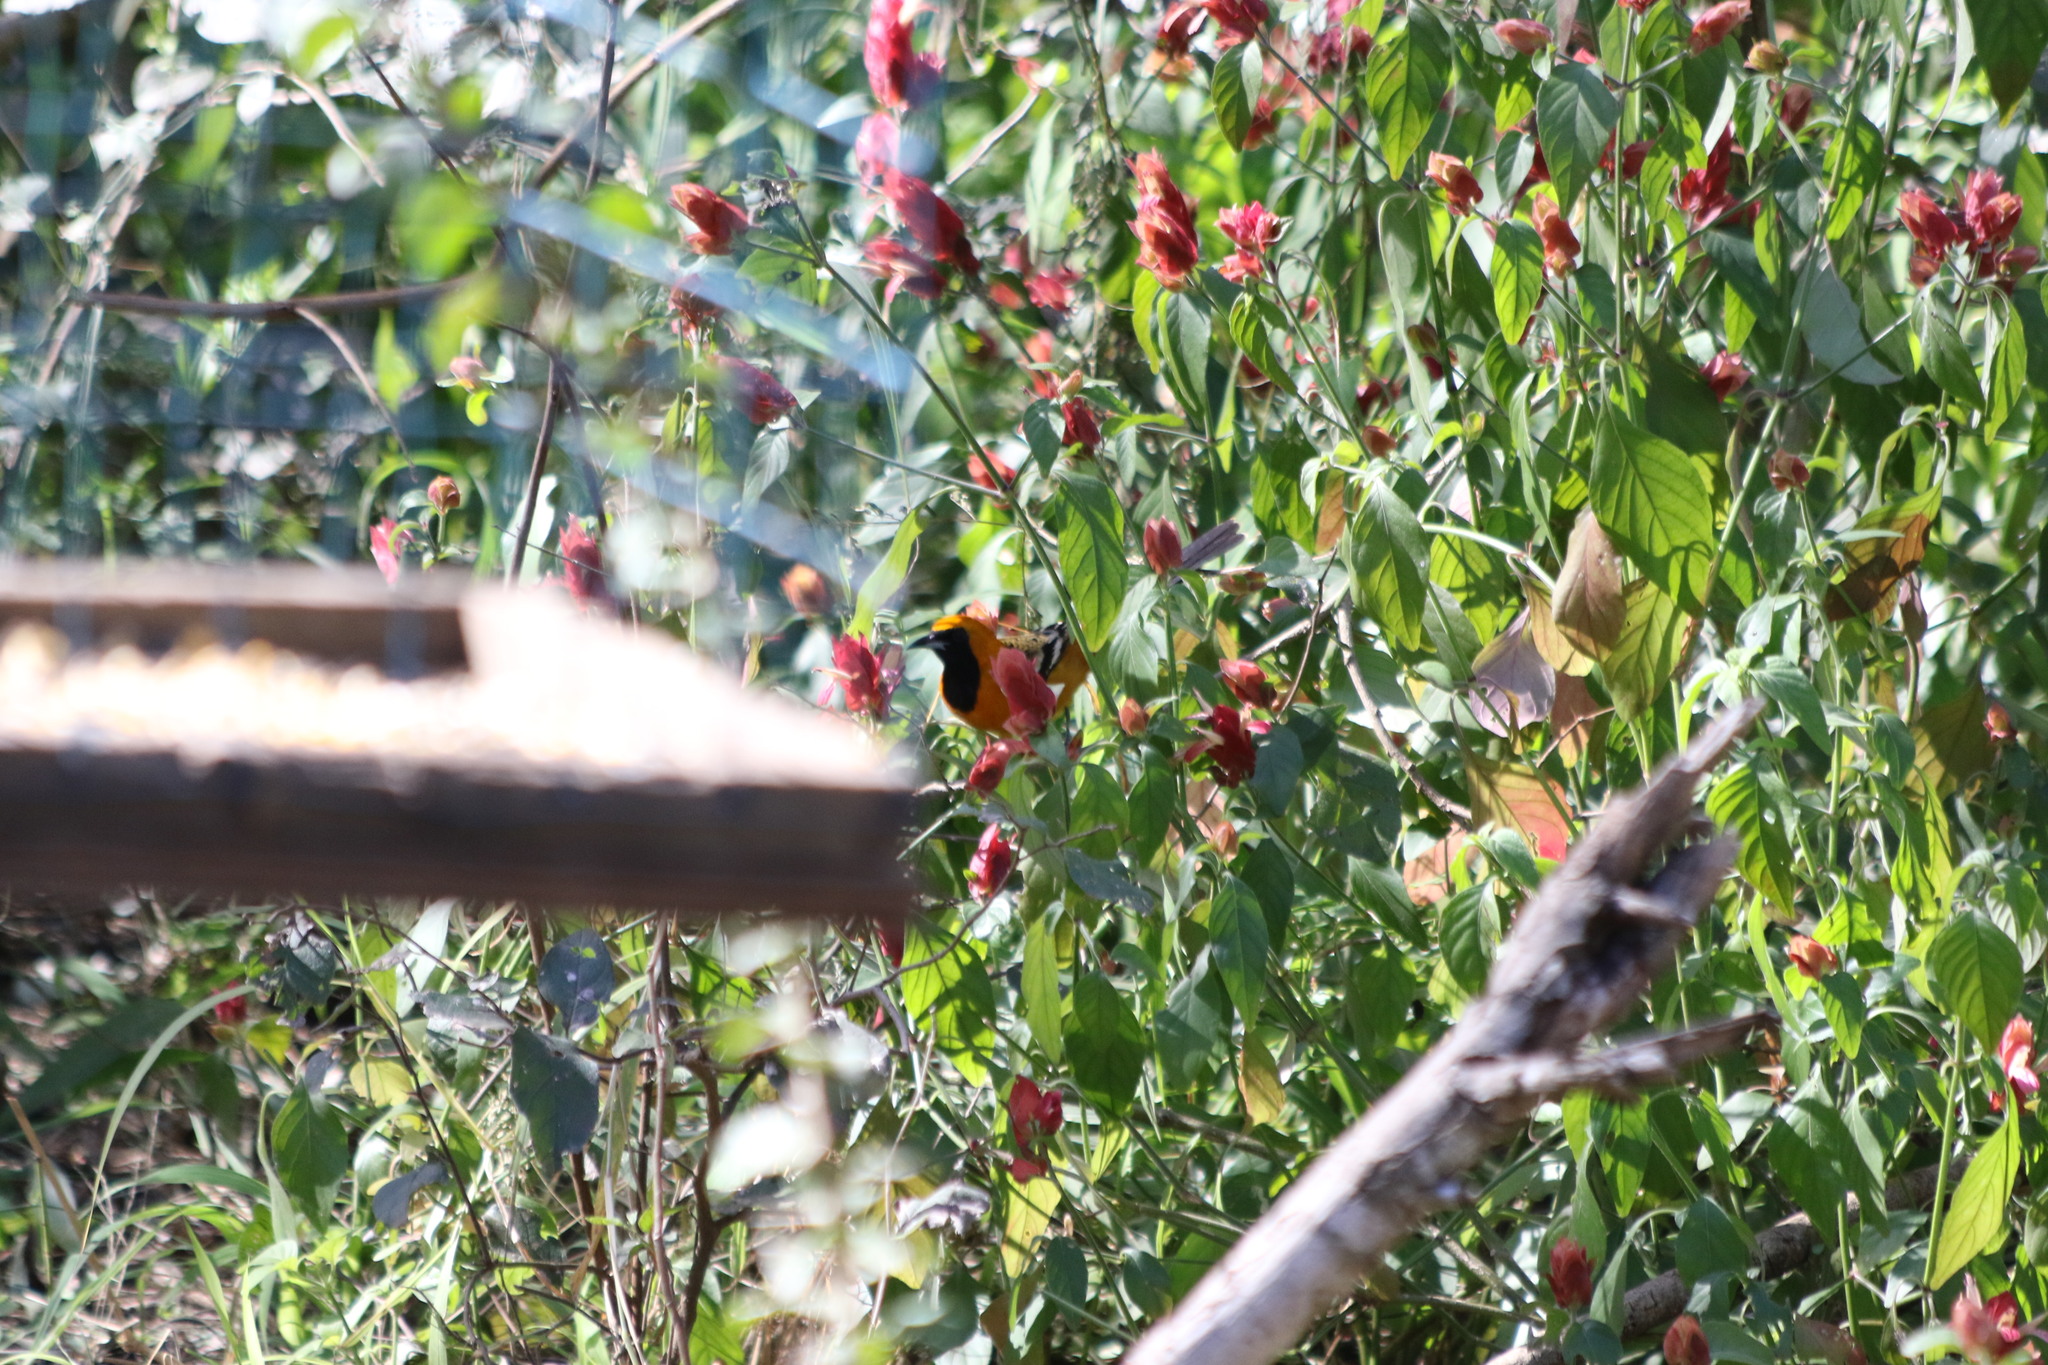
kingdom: Animalia
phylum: Chordata
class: Aves
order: Passeriformes
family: Icteridae
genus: Icterus
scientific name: Icterus cucullatus
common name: Hooded oriole
